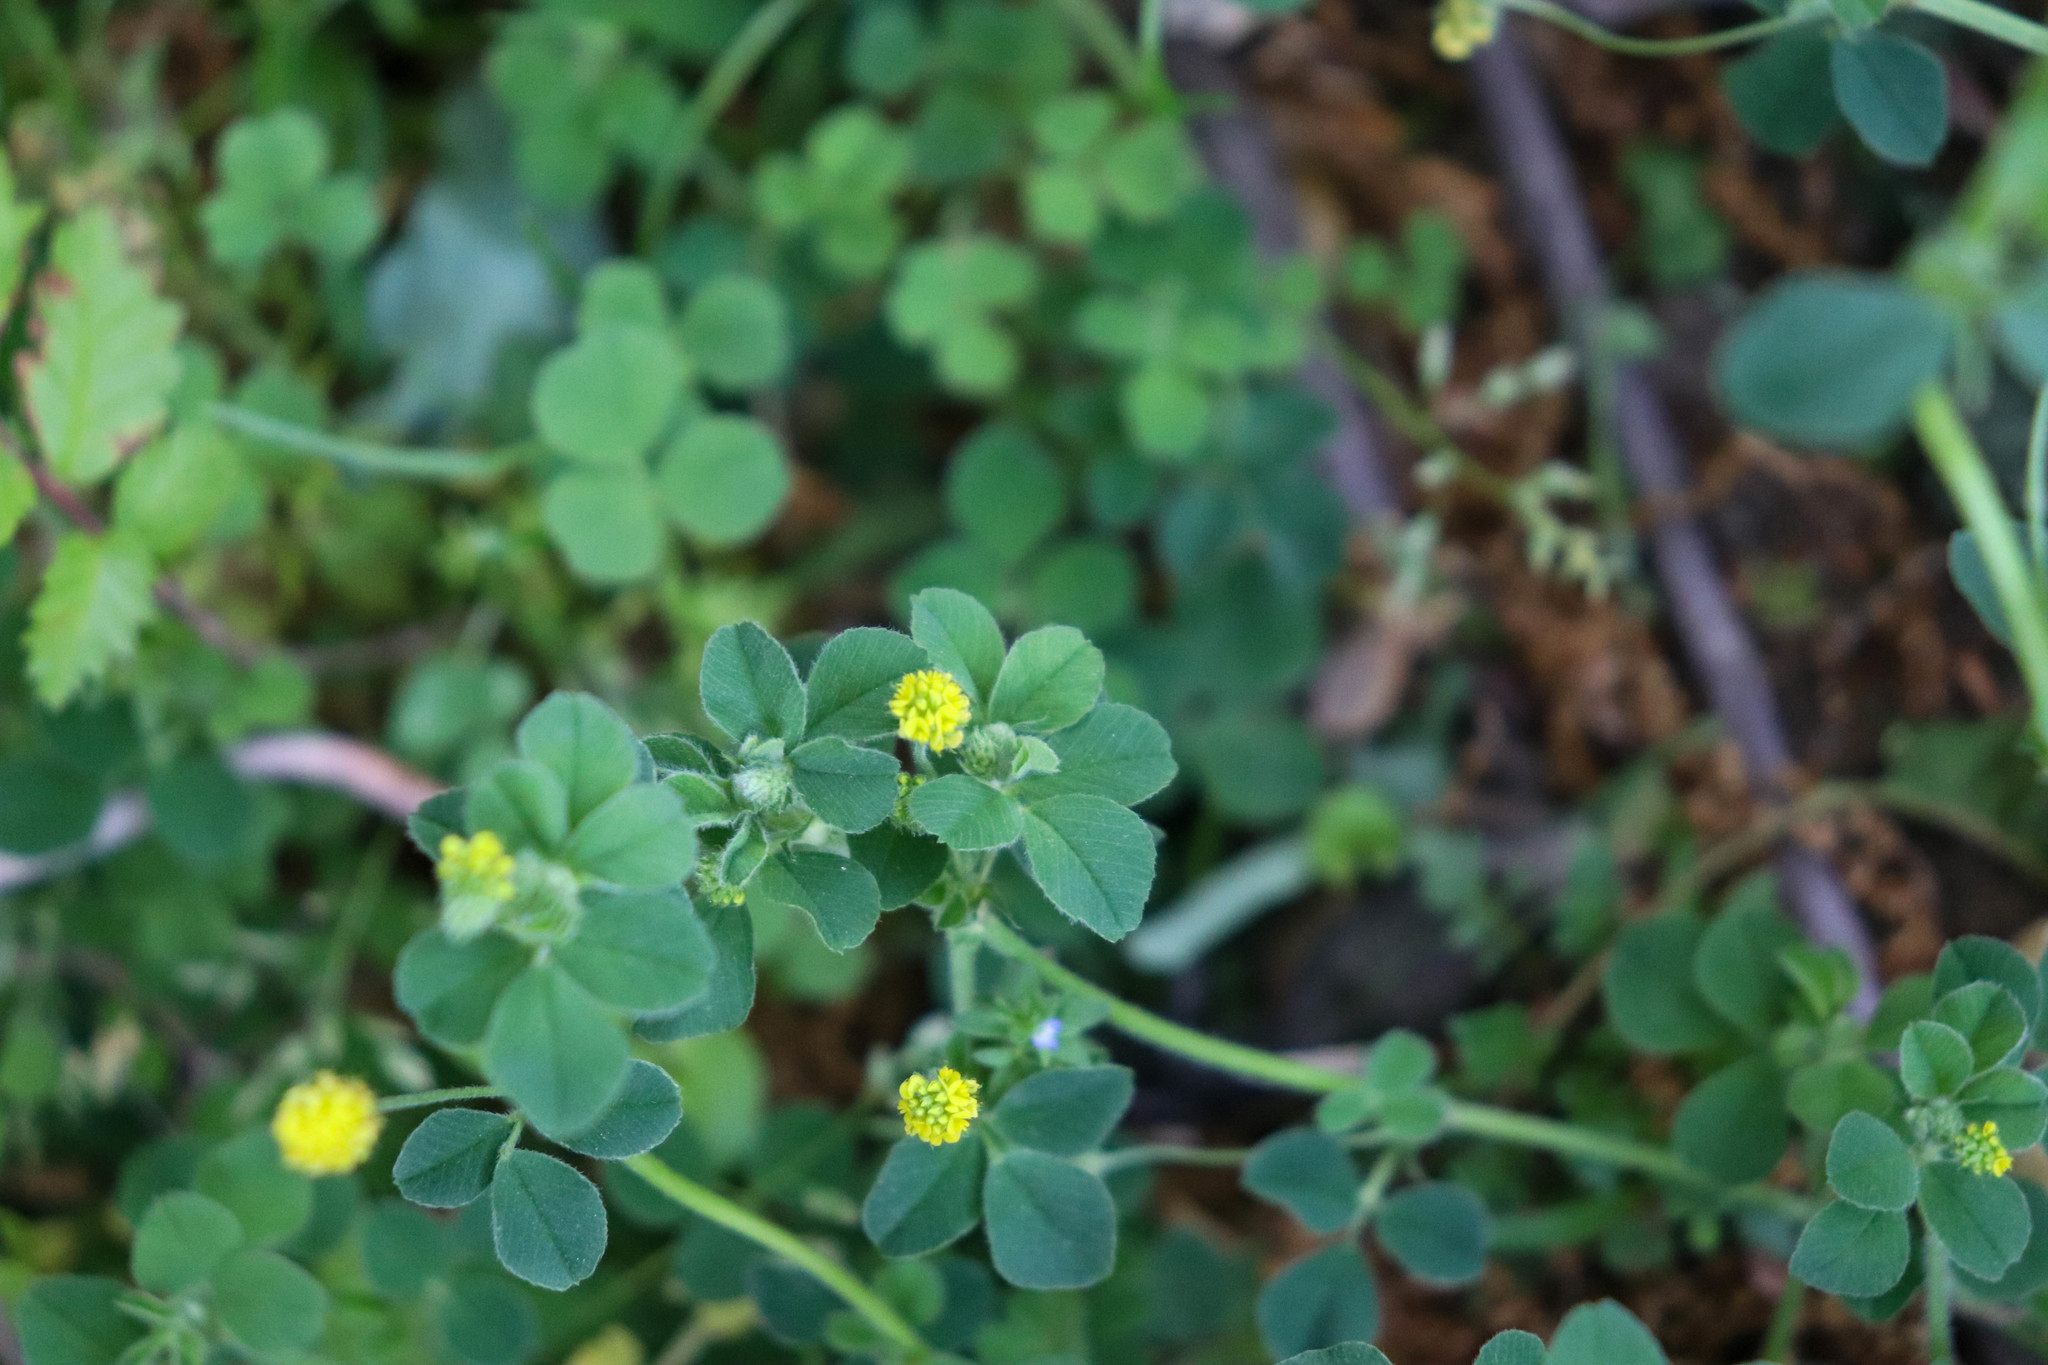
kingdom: Plantae
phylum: Tracheophyta
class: Magnoliopsida
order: Fabales
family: Fabaceae
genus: Medicago
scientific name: Medicago lupulina
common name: Black medick
